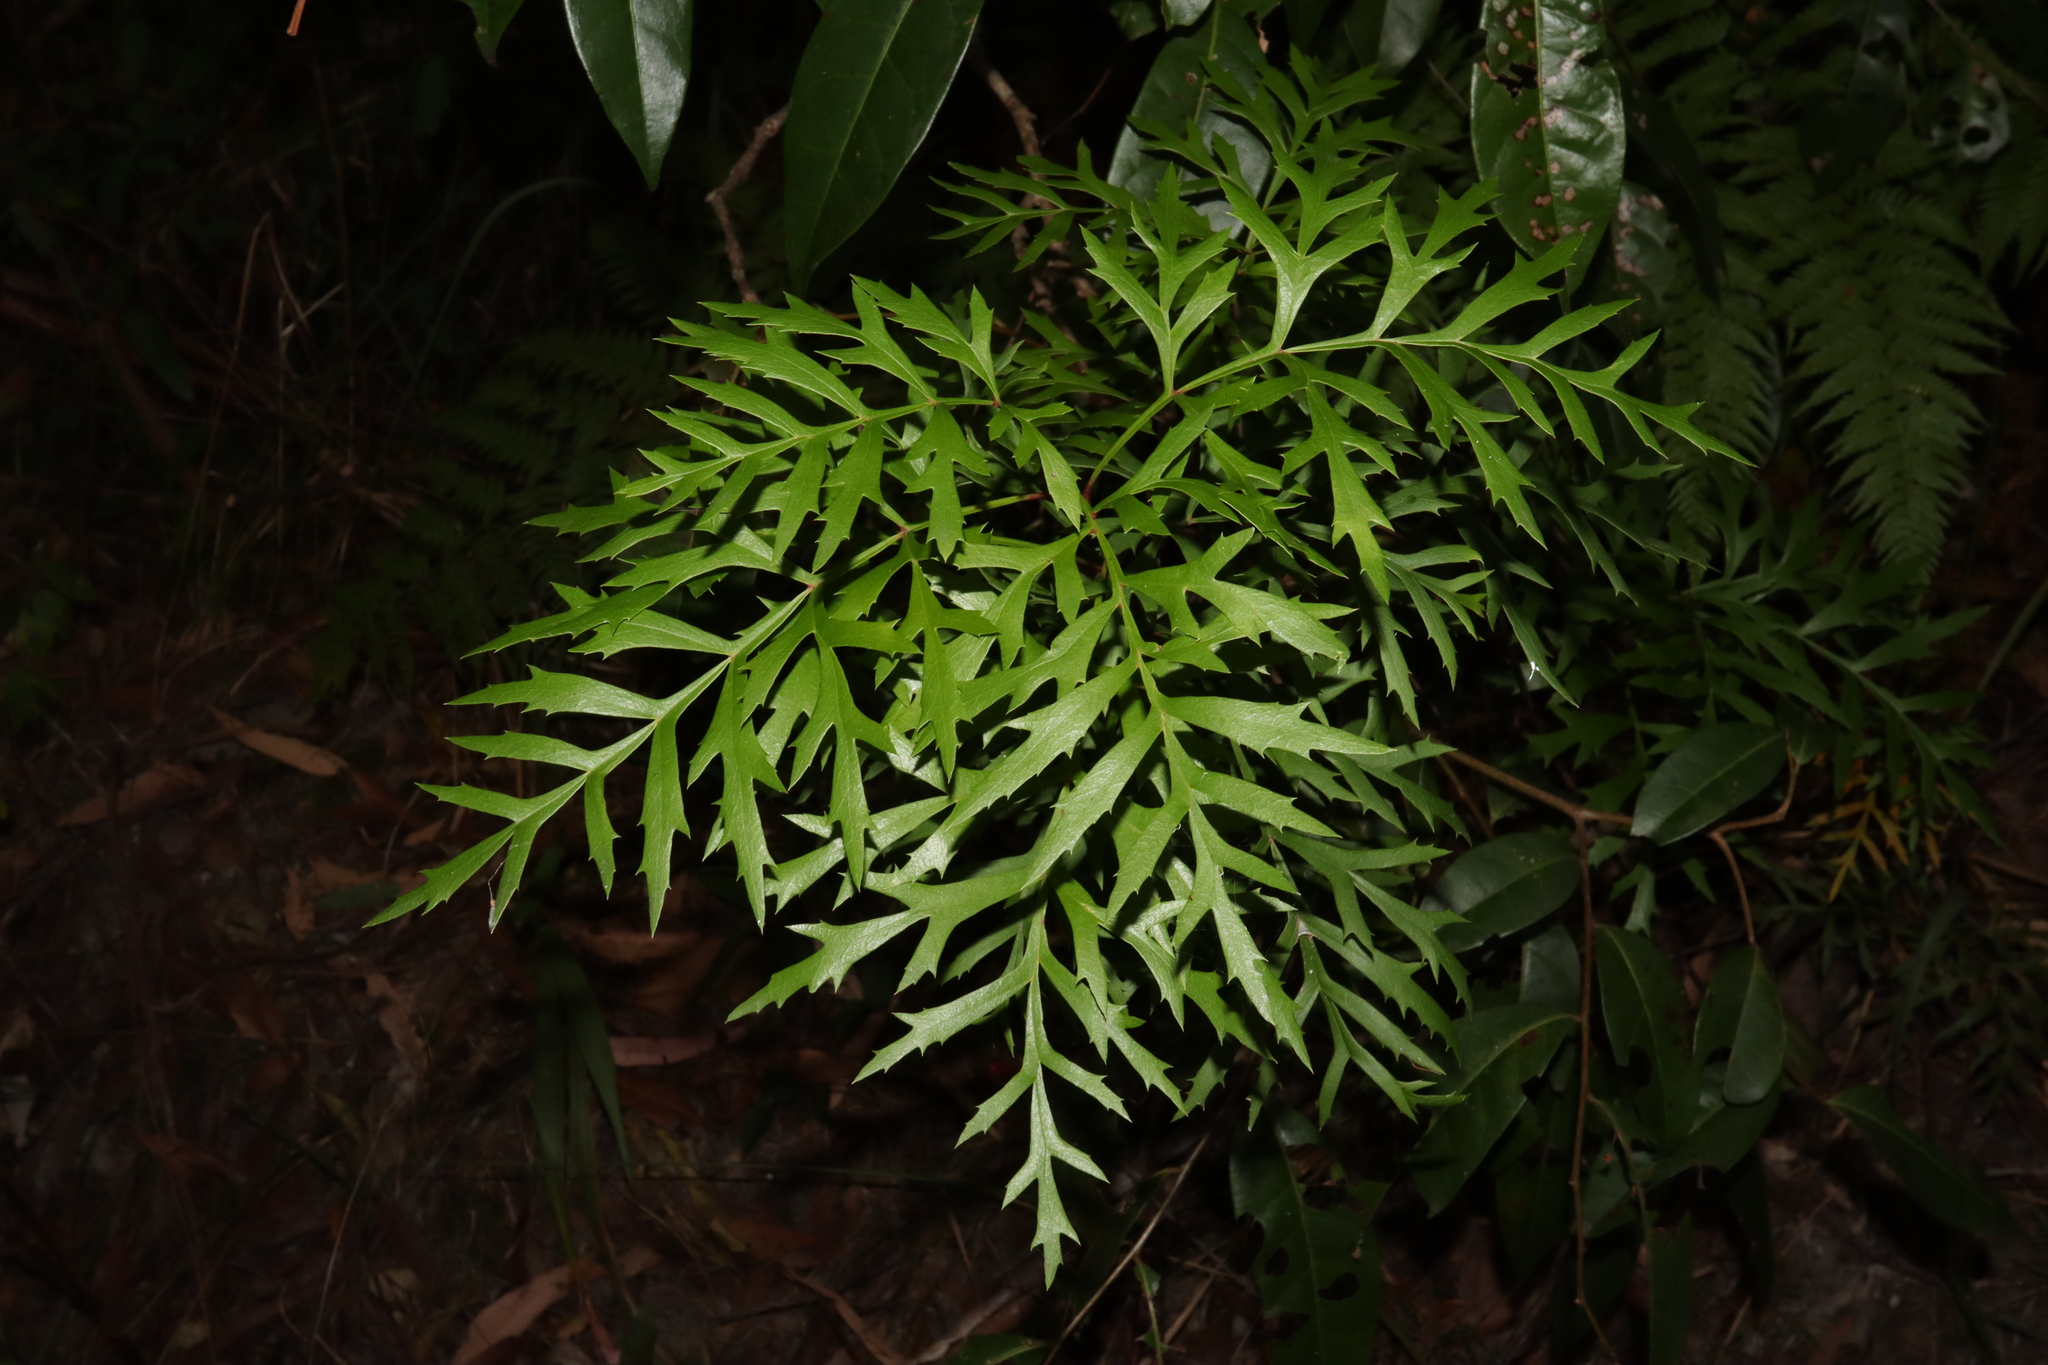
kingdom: Plantae
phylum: Tracheophyta
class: Magnoliopsida
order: Proteales
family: Proteaceae
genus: Lomatia
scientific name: Lomatia silaifolia
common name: Crinklebush
